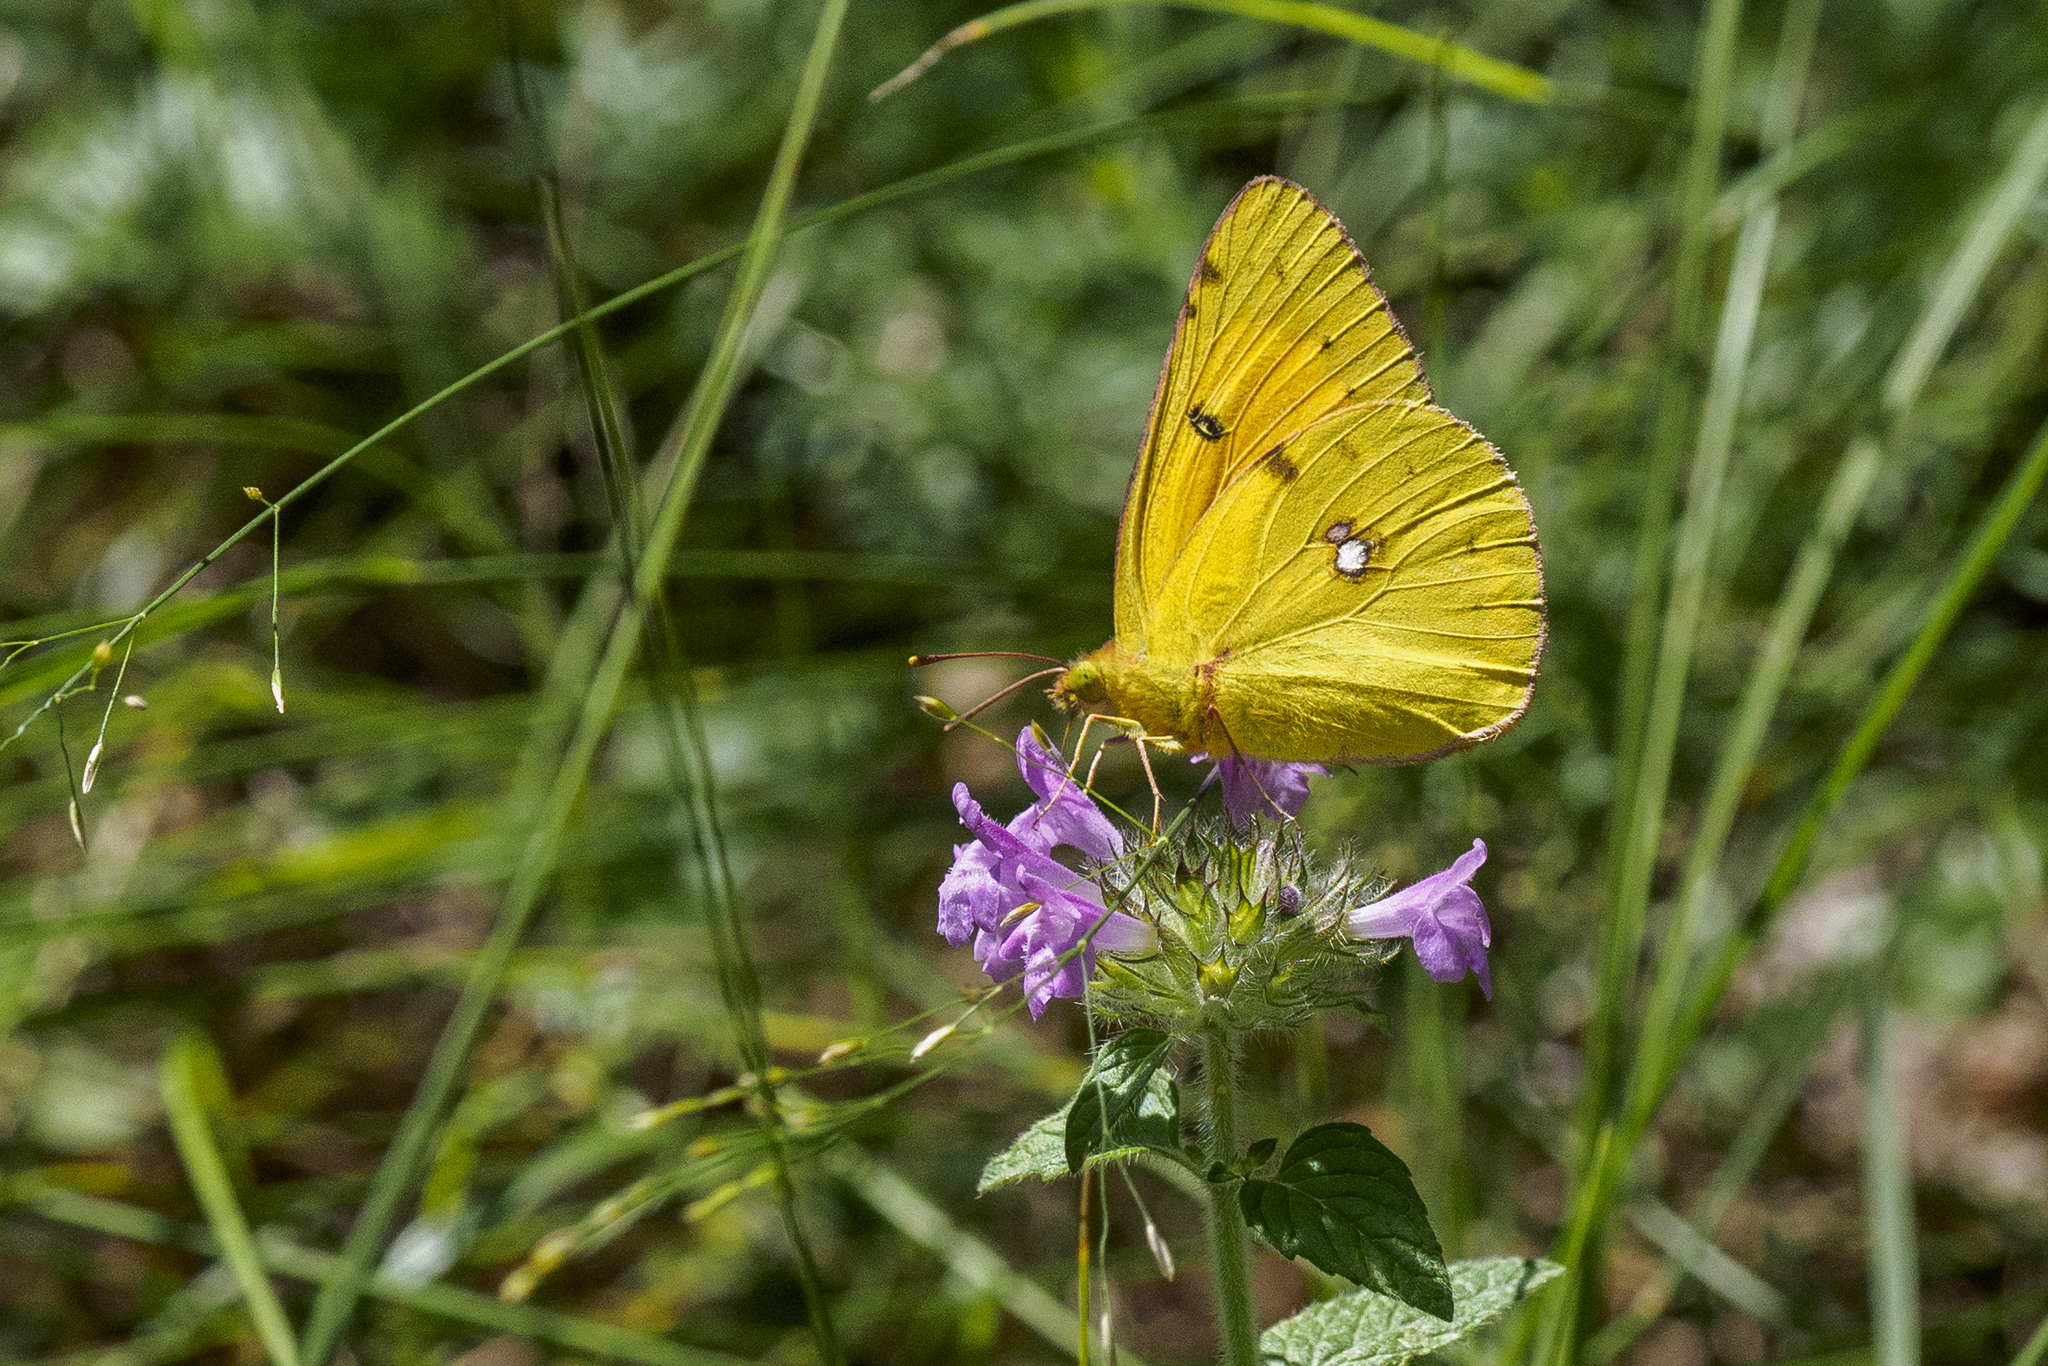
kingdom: Animalia
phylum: Arthropoda
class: Insecta
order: Lepidoptera
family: Pieridae
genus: Colias
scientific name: Colias croceus
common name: Clouded yellow
